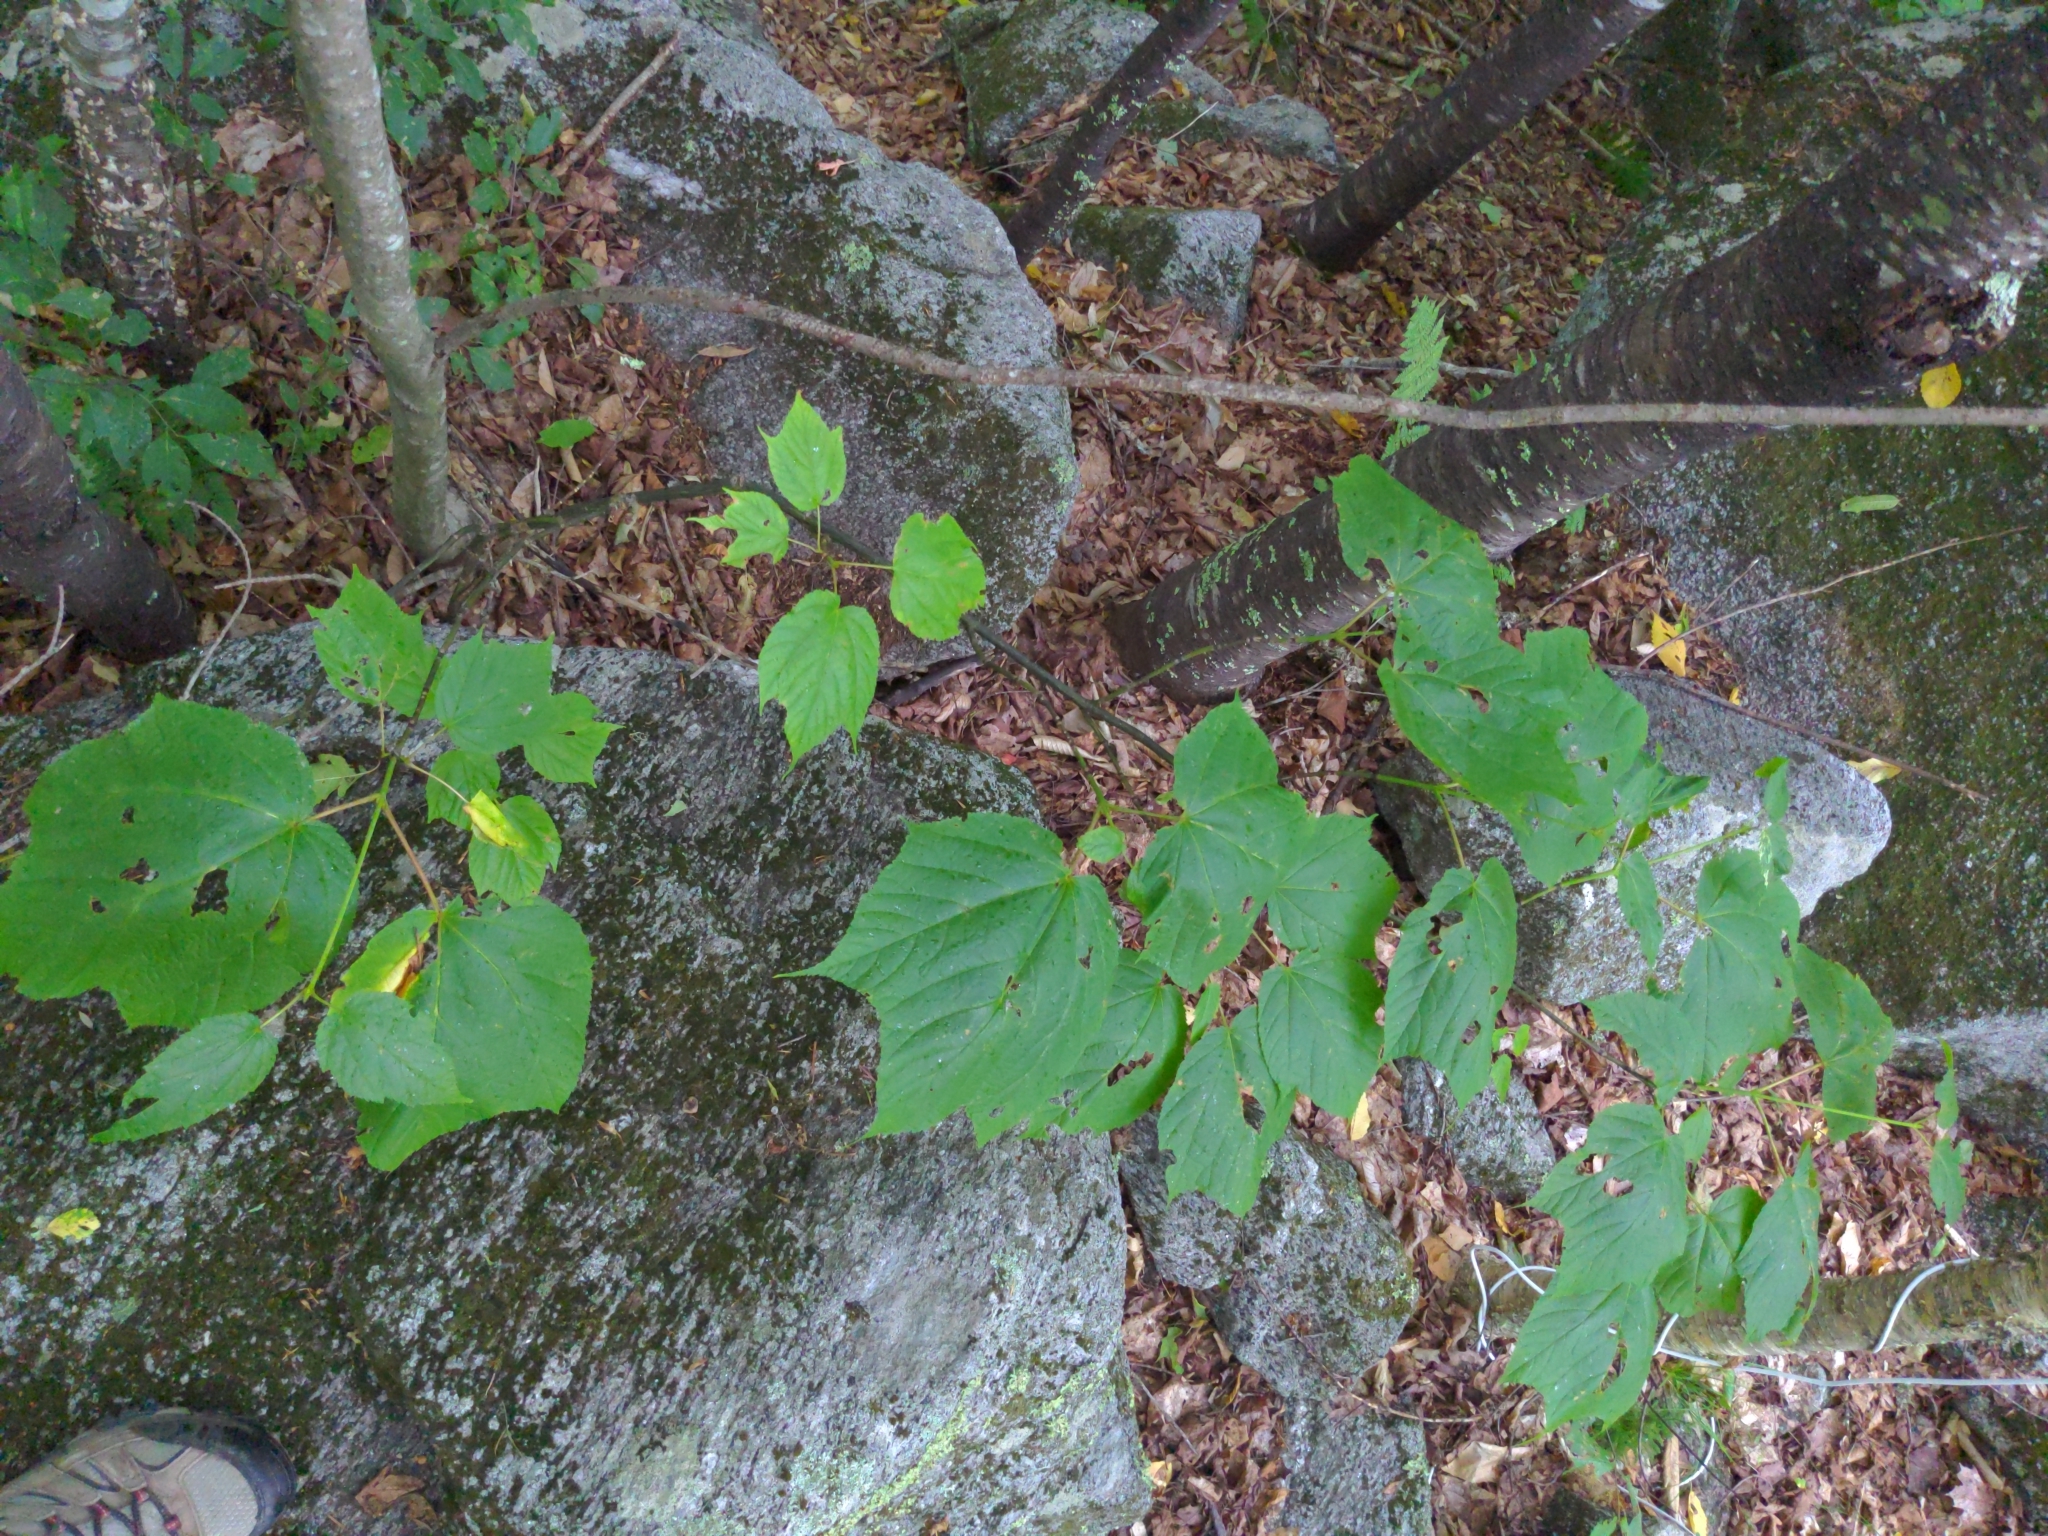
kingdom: Plantae
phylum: Tracheophyta
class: Magnoliopsida
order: Sapindales
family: Sapindaceae
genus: Acer
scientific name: Acer pensylvanicum
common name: Moosewood
